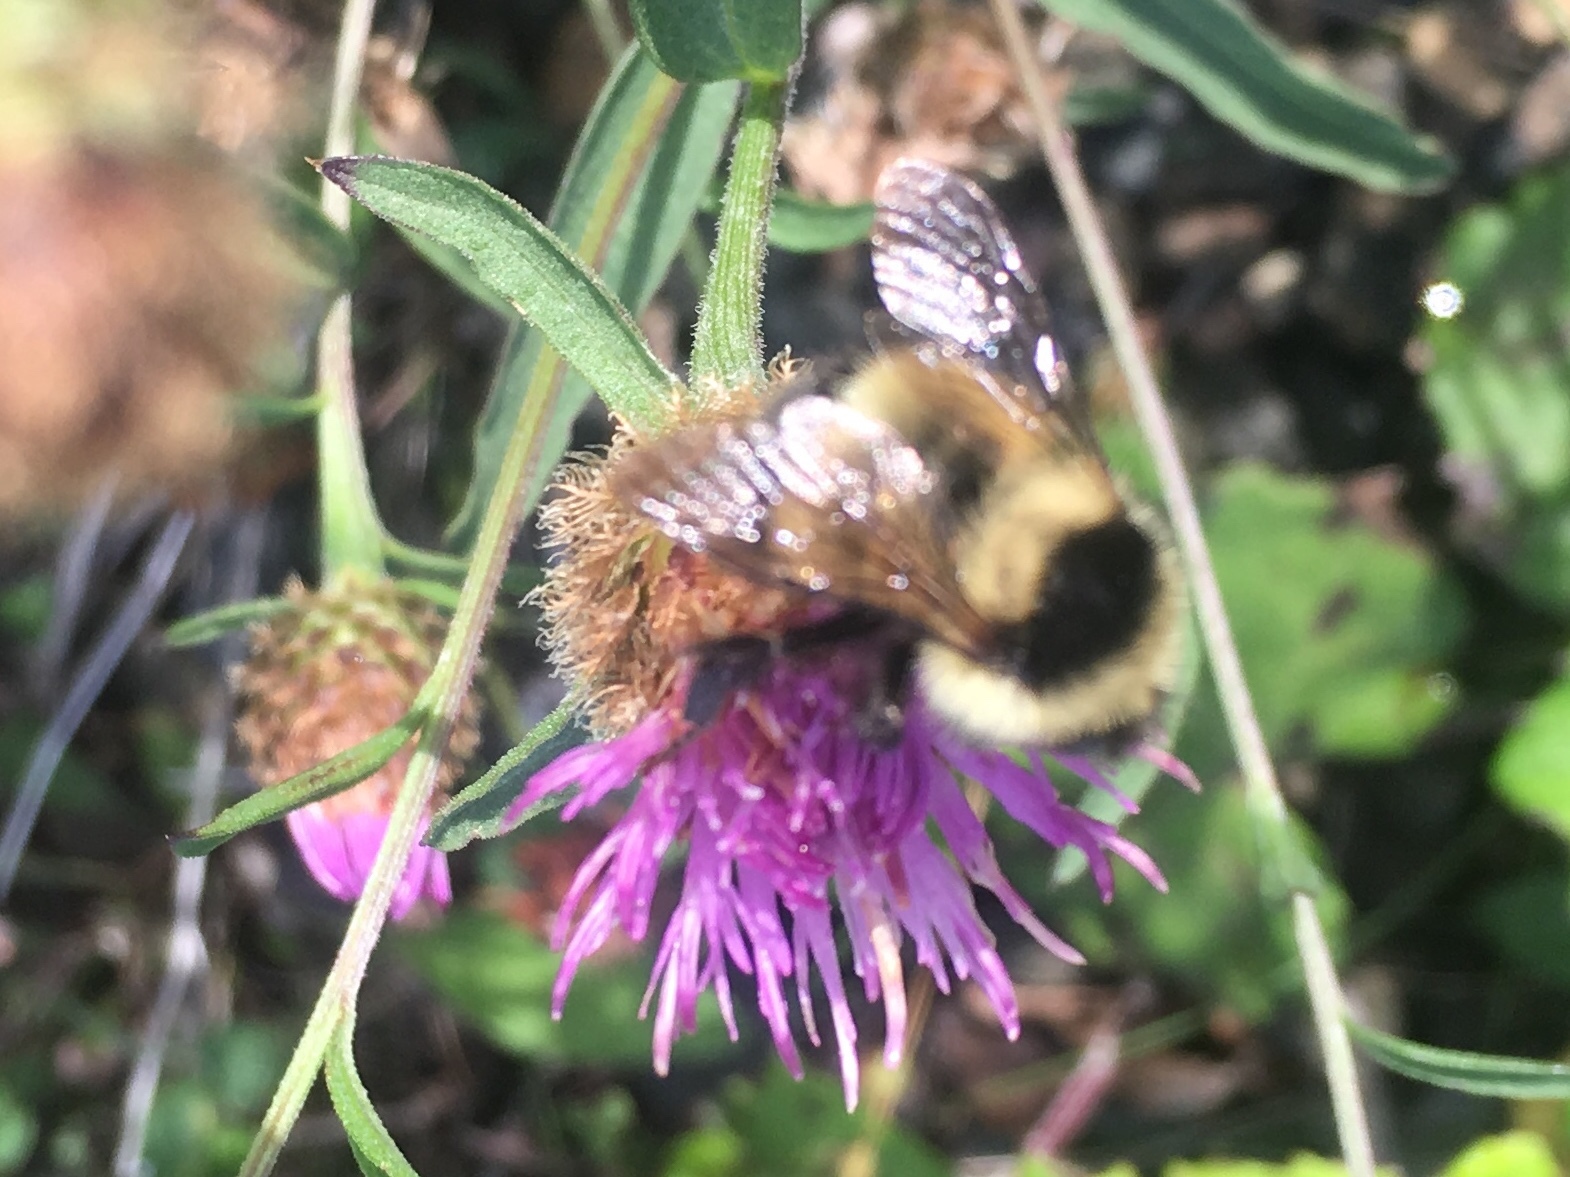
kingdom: Animalia
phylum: Arthropoda
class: Insecta
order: Hymenoptera
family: Apidae
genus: Bombus
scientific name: Bombus vagans
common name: Half-black bumble bee
